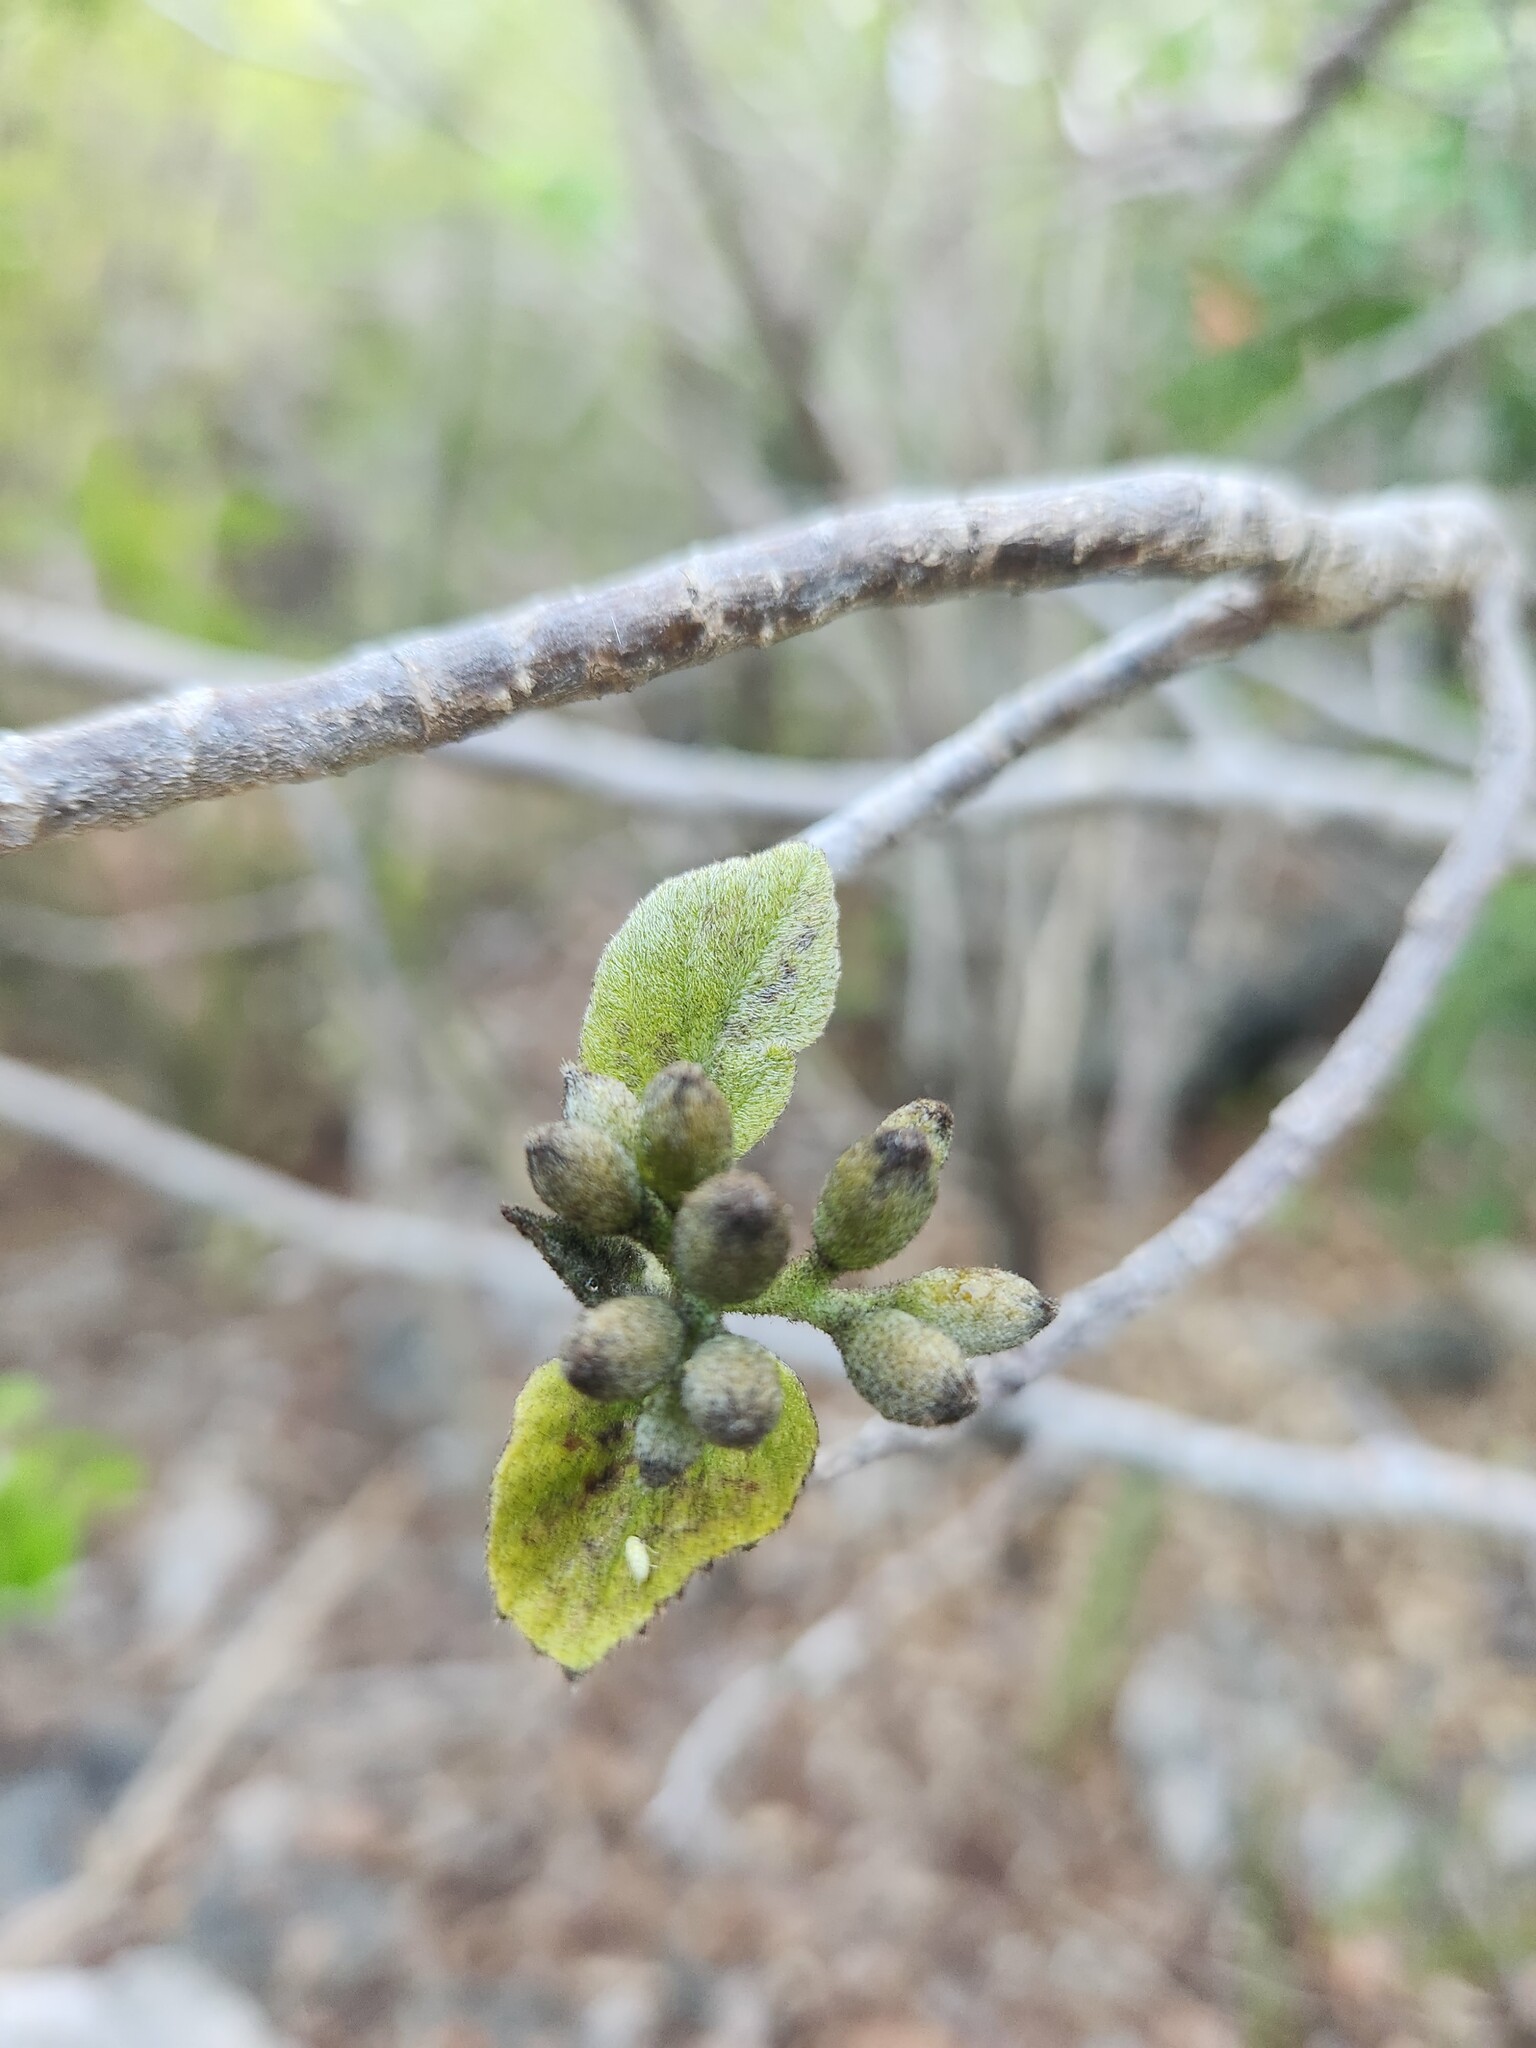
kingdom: Plantae
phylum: Tracheophyta
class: Magnoliopsida
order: Boraginales
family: Cordiaceae
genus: Cordia
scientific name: Cordia sebestena
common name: Largeleaf geigertree
